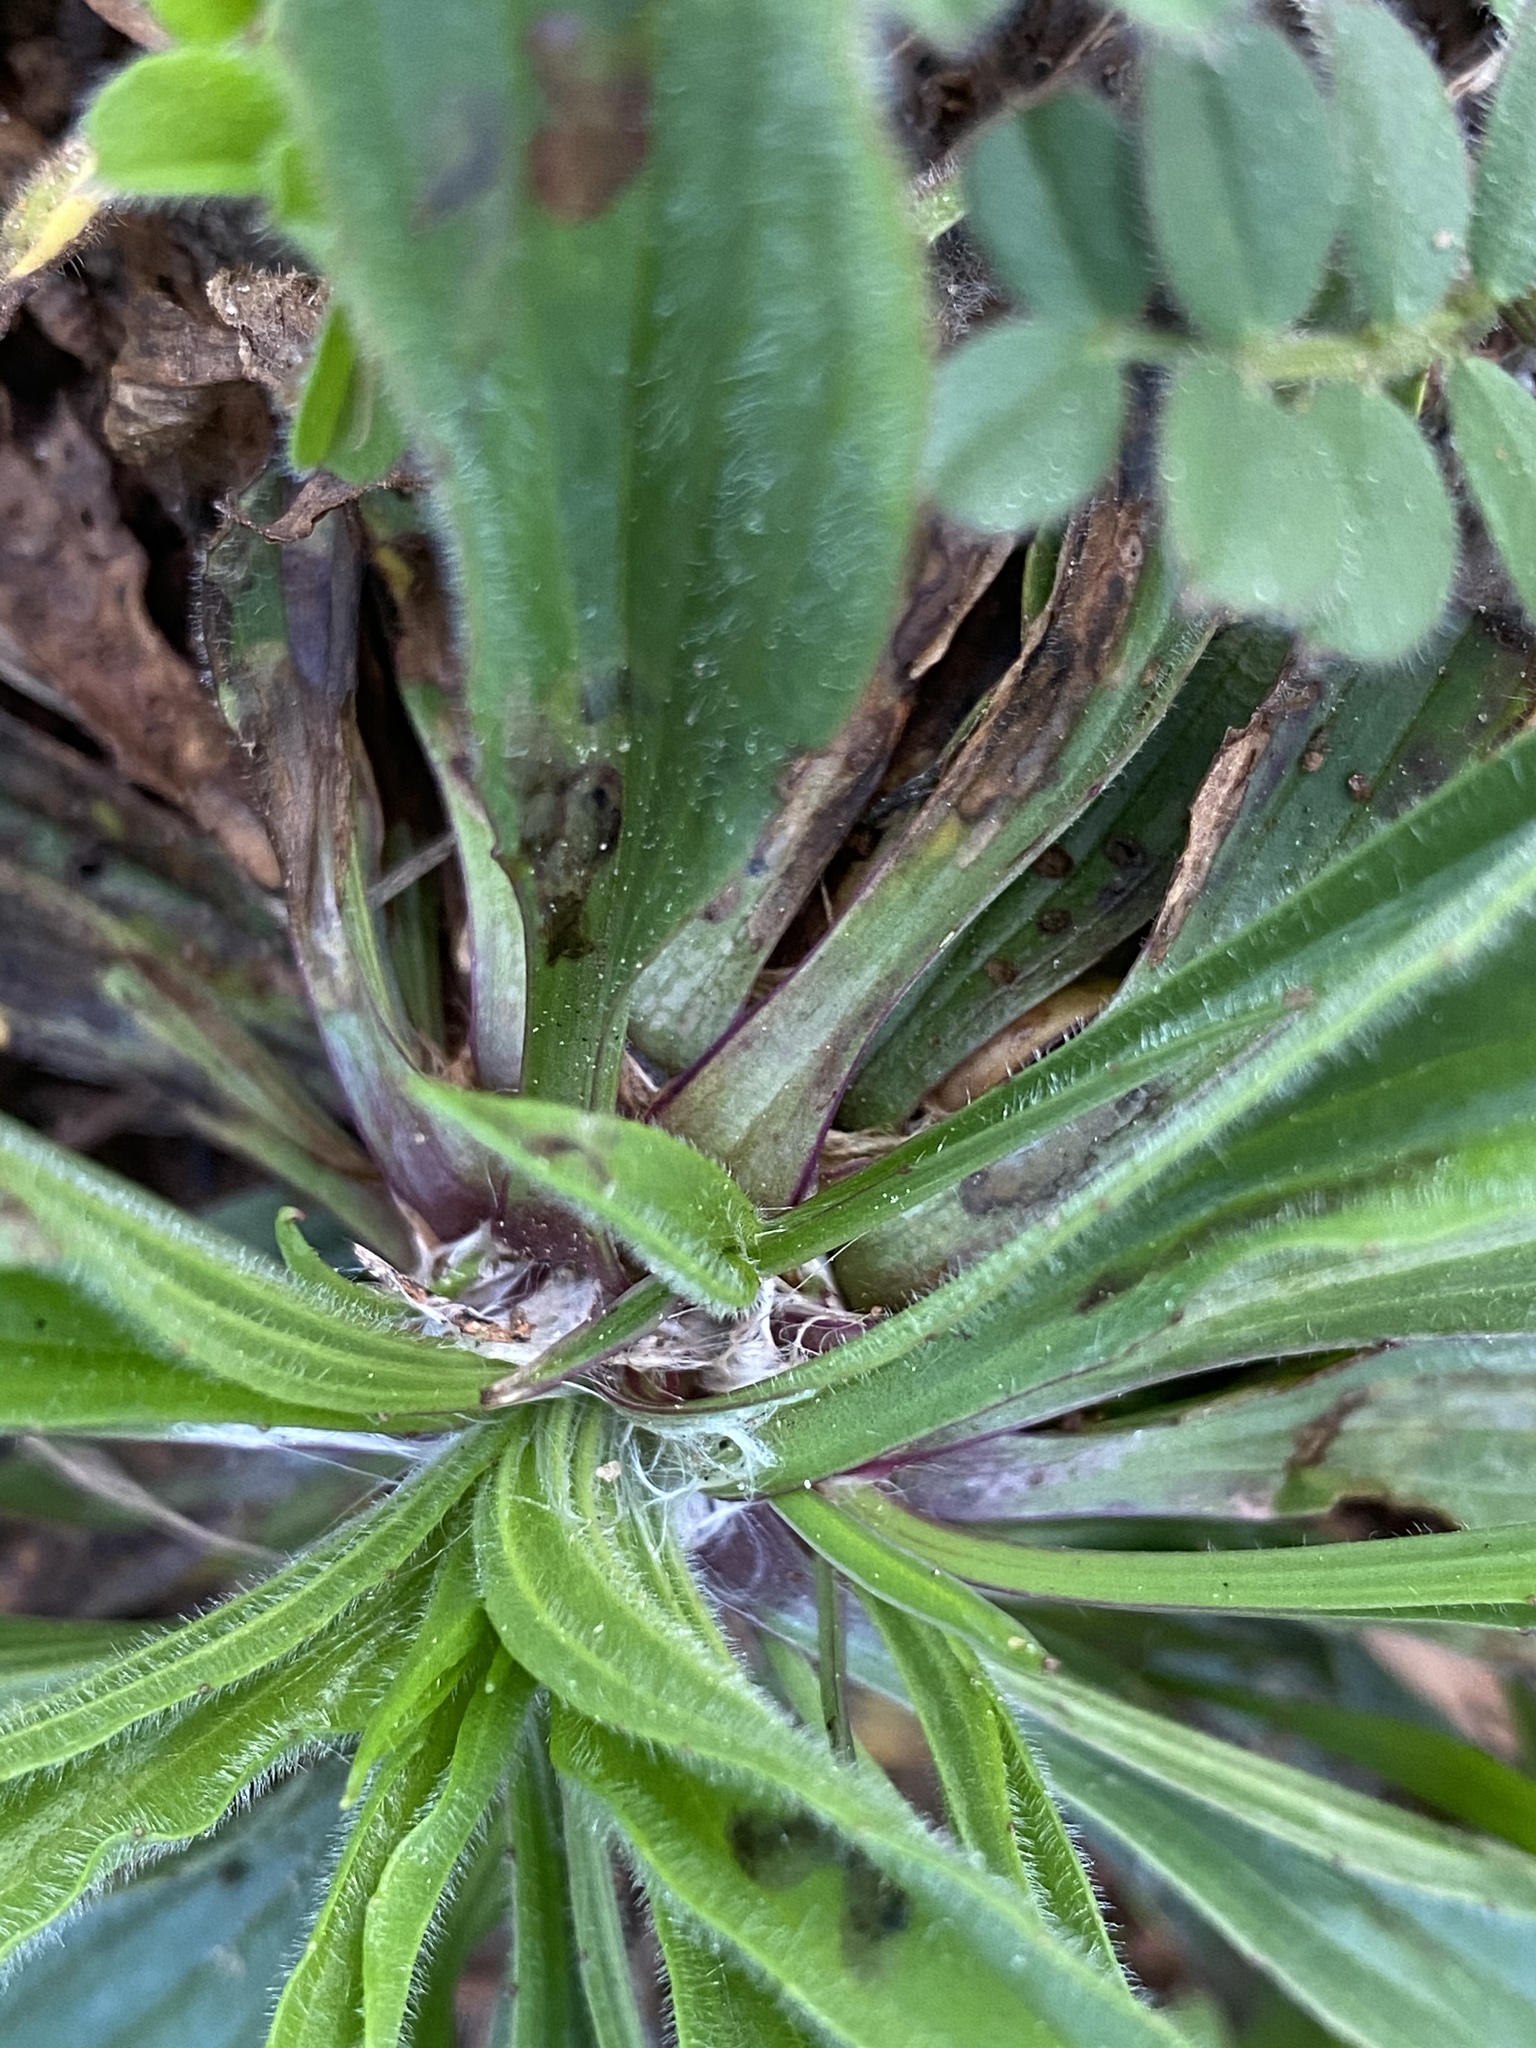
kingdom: Plantae
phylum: Tracheophyta
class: Magnoliopsida
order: Lamiales
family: Plantaginaceae
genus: Plantago
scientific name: Plantago lanceolata
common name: Ribwort plantain
